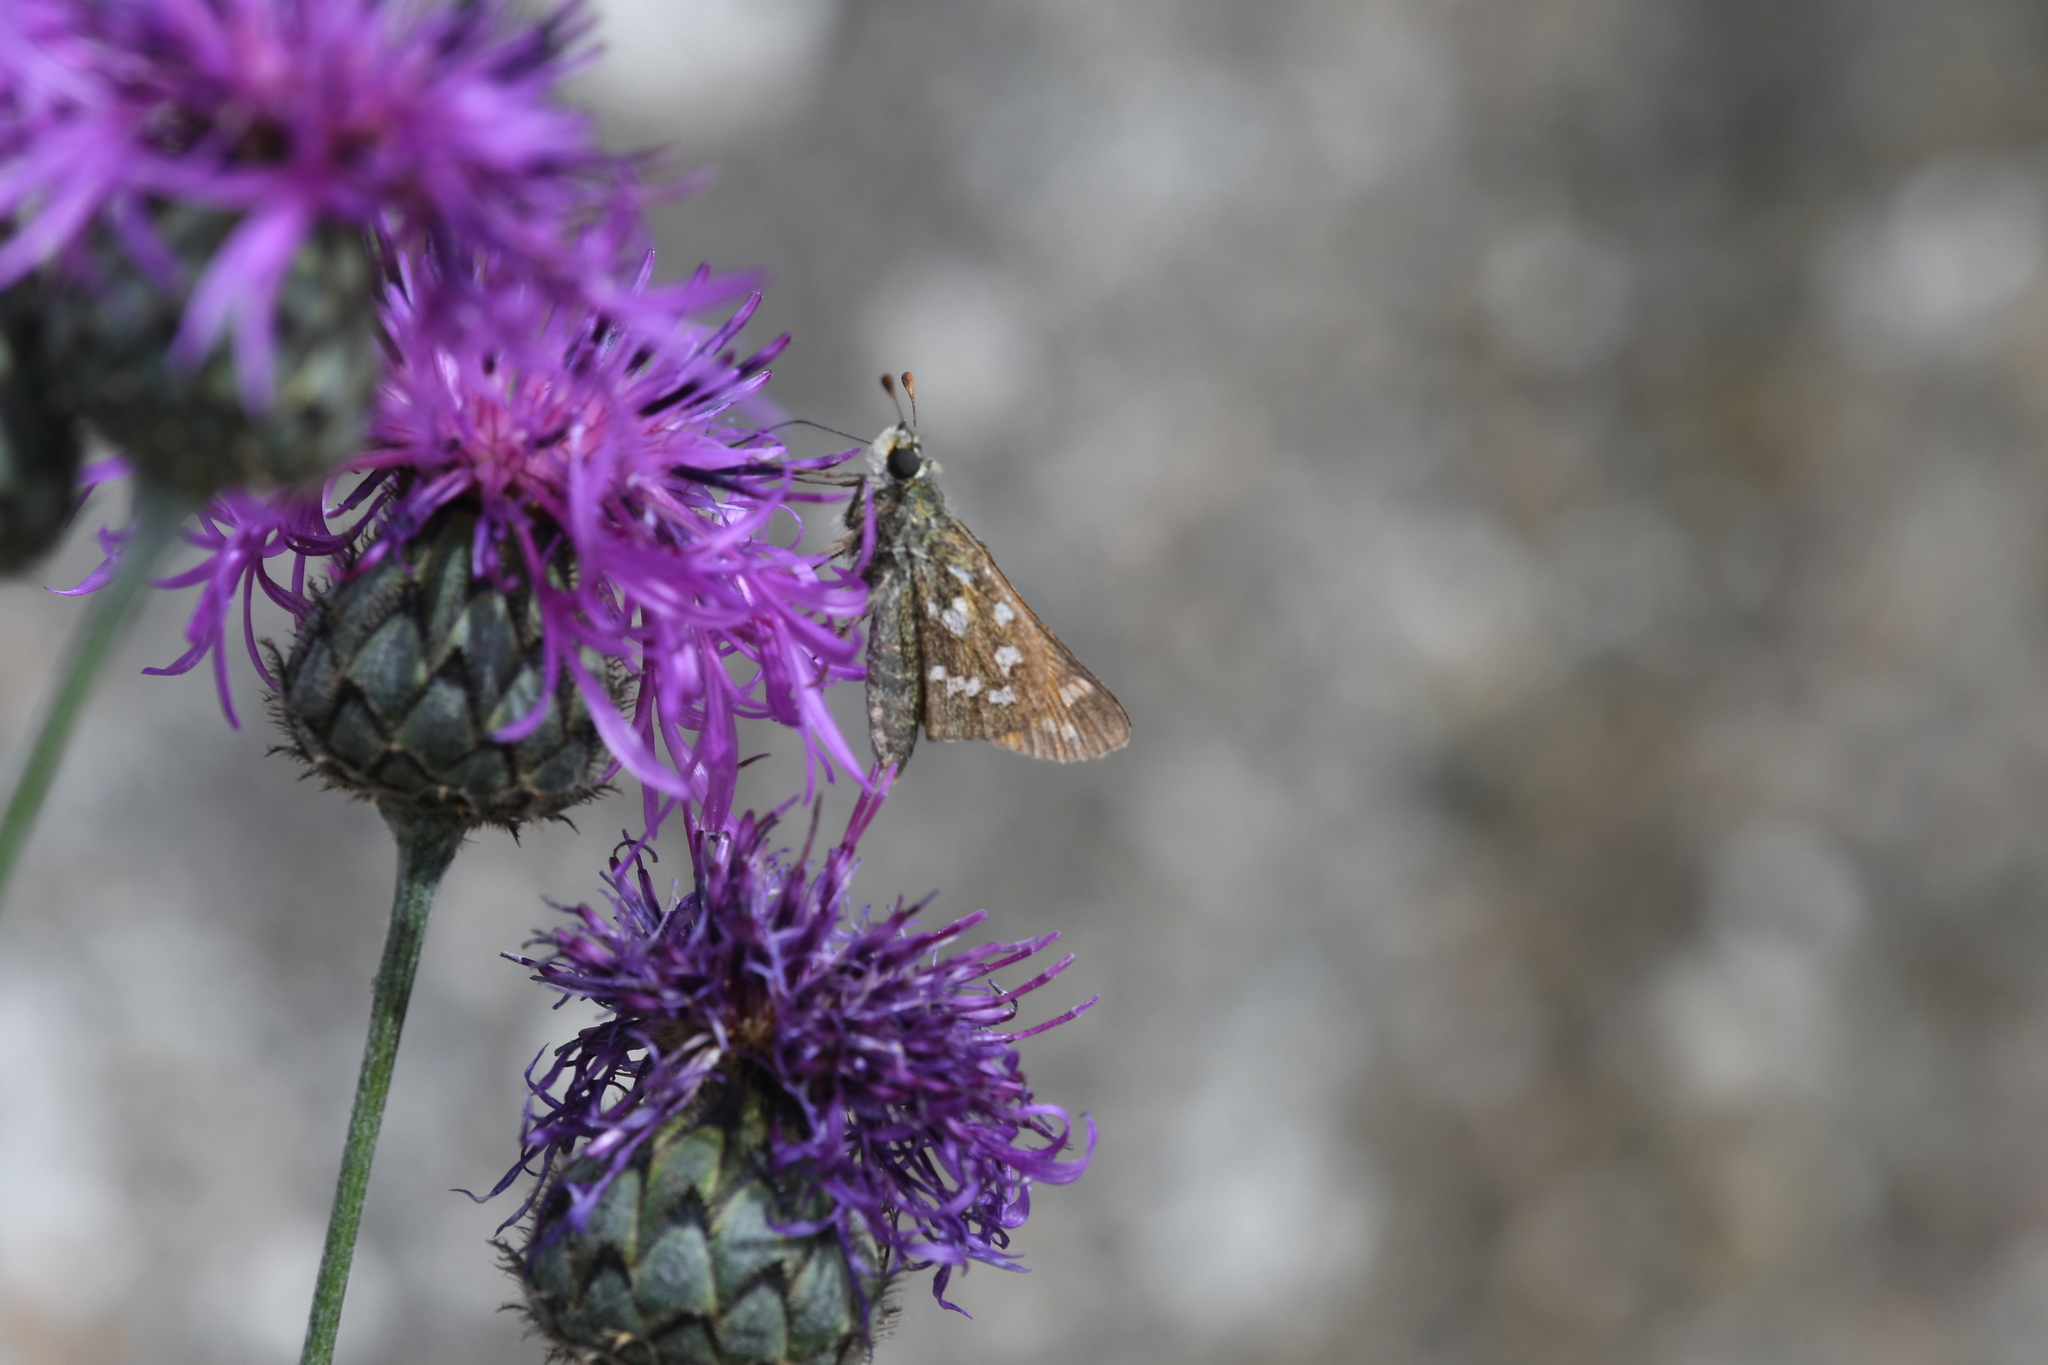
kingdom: Animalia
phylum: Arthropoda
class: Insecta
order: Lepidoptera
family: Hesperiidae
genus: Hesperia
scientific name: Hesperia comma
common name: Common branded skipper
